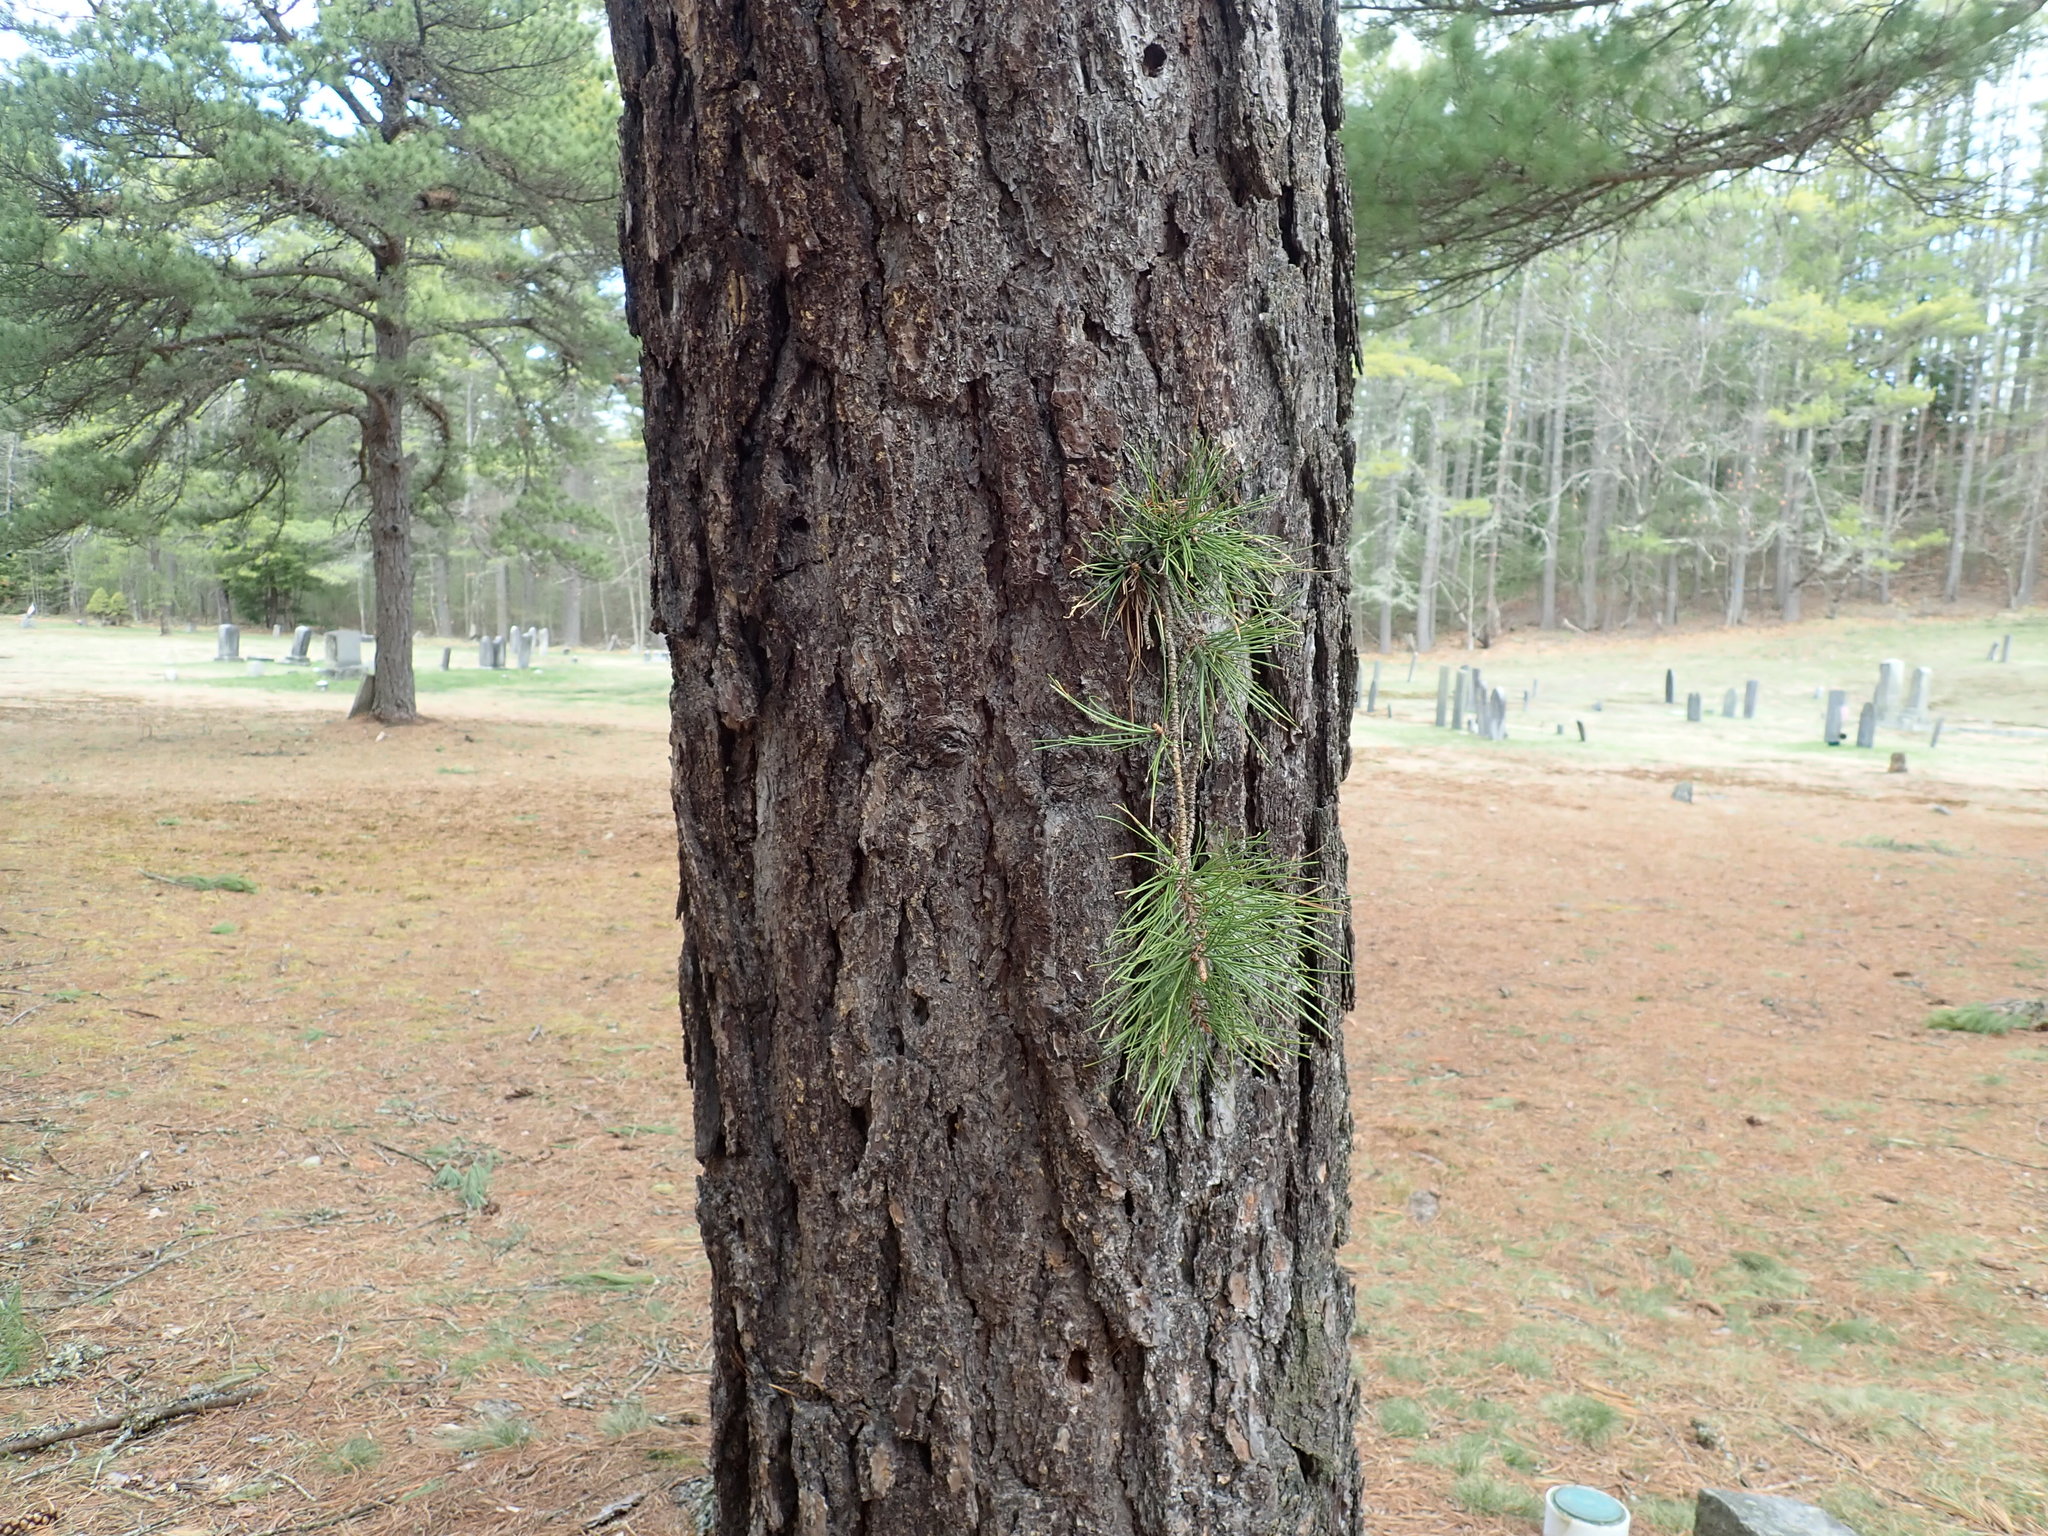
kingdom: Plantae
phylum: Tracheophyta
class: Pinopsida
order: Pinales
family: Pinaceae
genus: Pinus
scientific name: Pinus rigida
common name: Pitch pine
